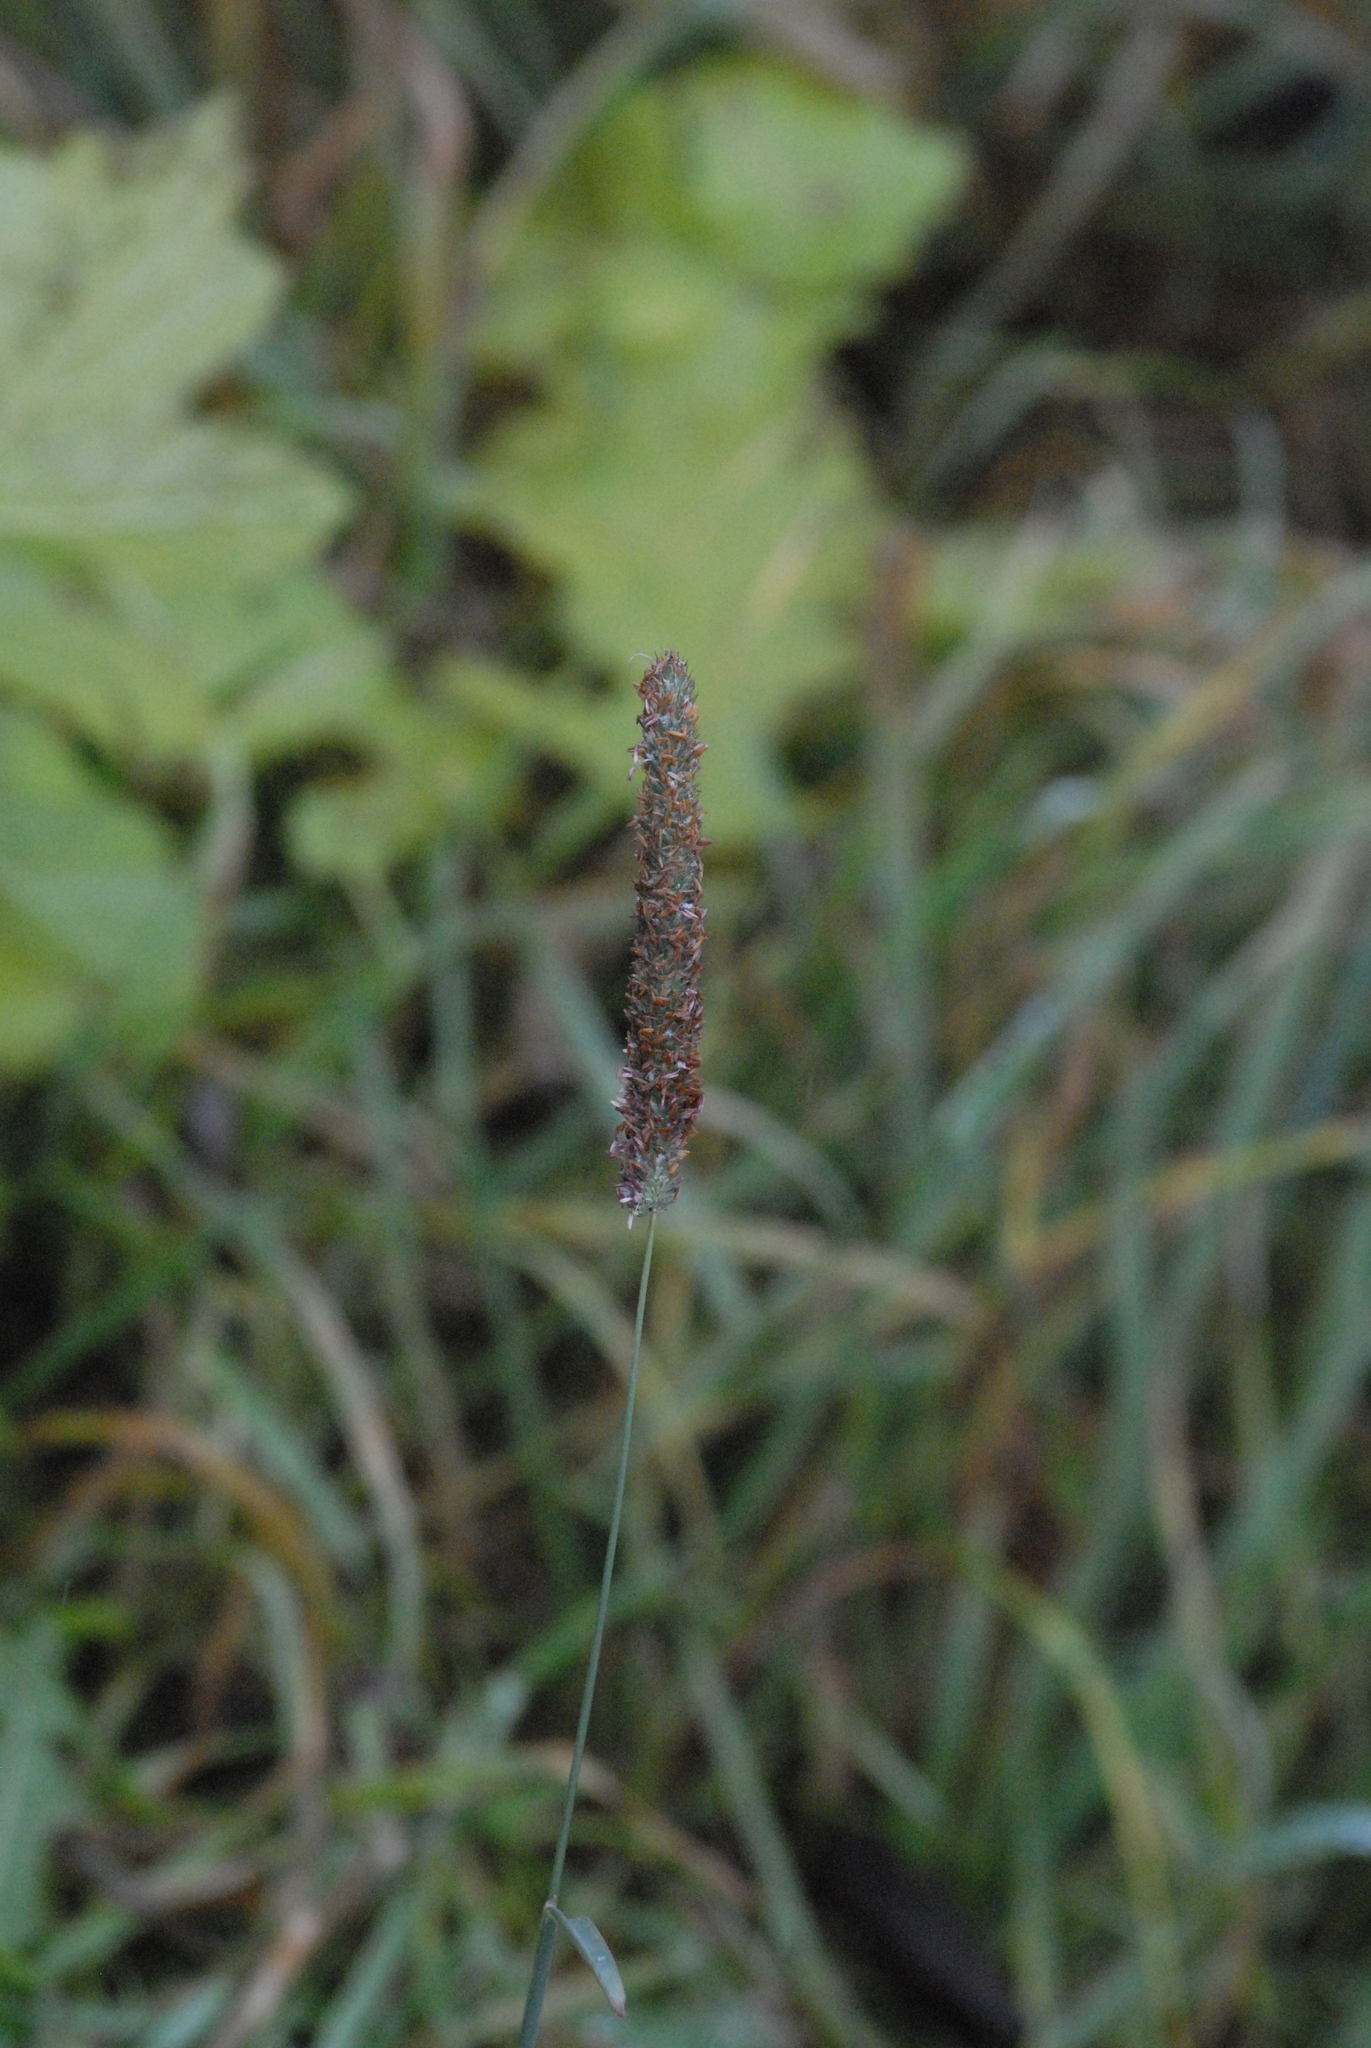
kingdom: Plantae
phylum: Tracheophyta
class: Liliopsida
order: Poales
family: Poaceae
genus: Phleum
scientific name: Phleum pratense
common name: Timothy grass
